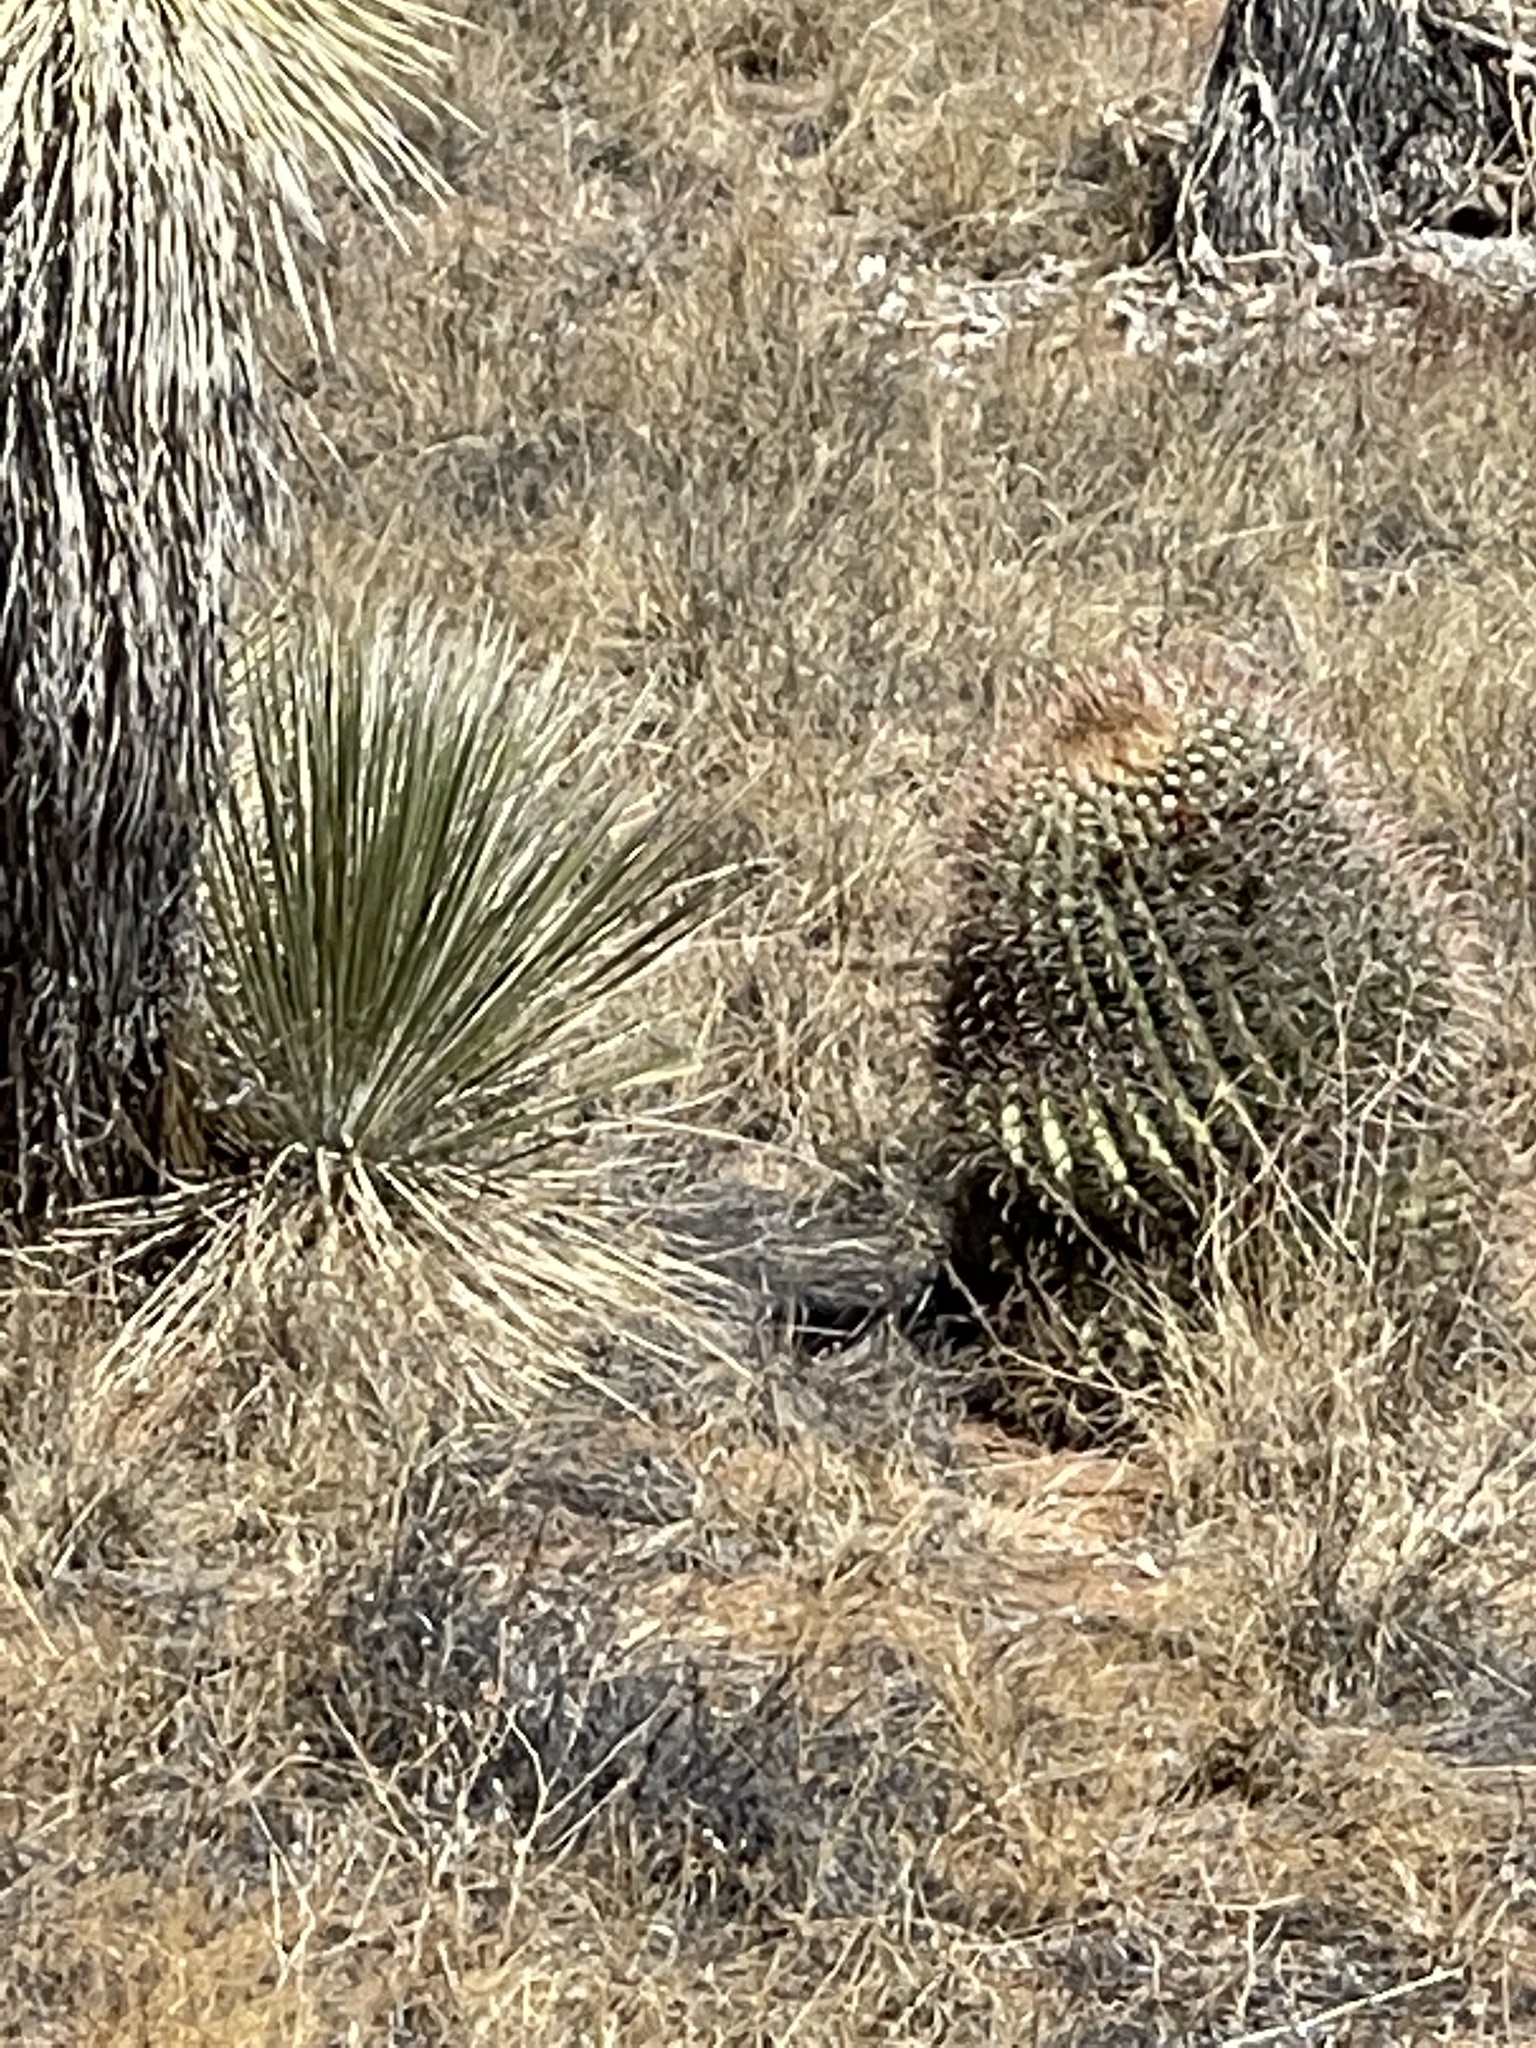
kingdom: Plantae
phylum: Tracheophyta
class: Magnoliopsida
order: Caryophyllales
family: Cactaceae
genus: Ferocactus
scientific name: Ferocactus wislizeni
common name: Candy barrel cactus
